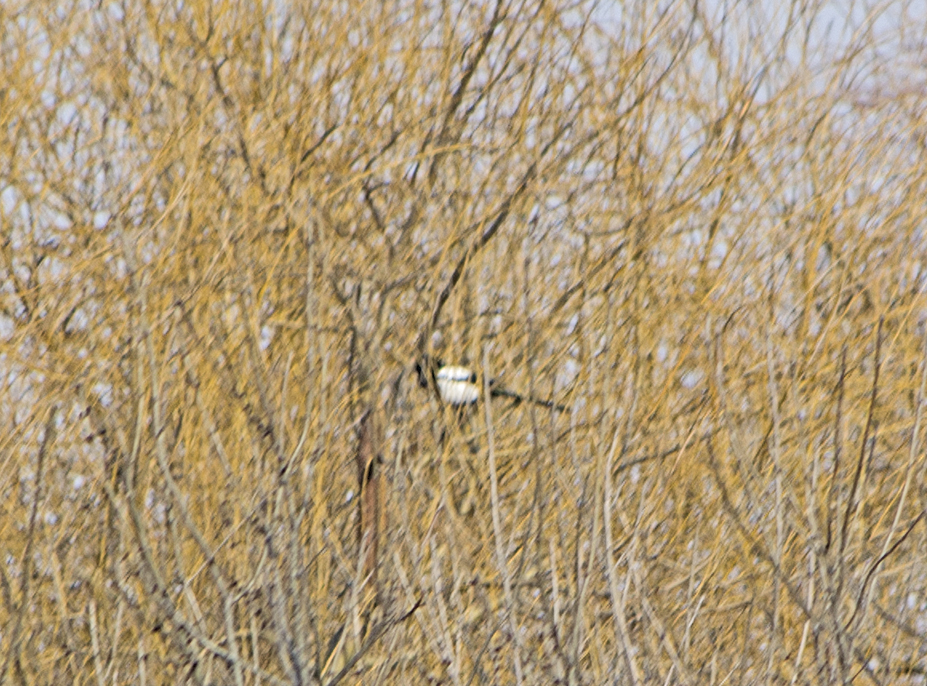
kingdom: Animalia
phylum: Chordata
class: Aves
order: Passeriformes
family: Corvidae
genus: Pica
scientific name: Pica pica
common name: Eurasian magpie
